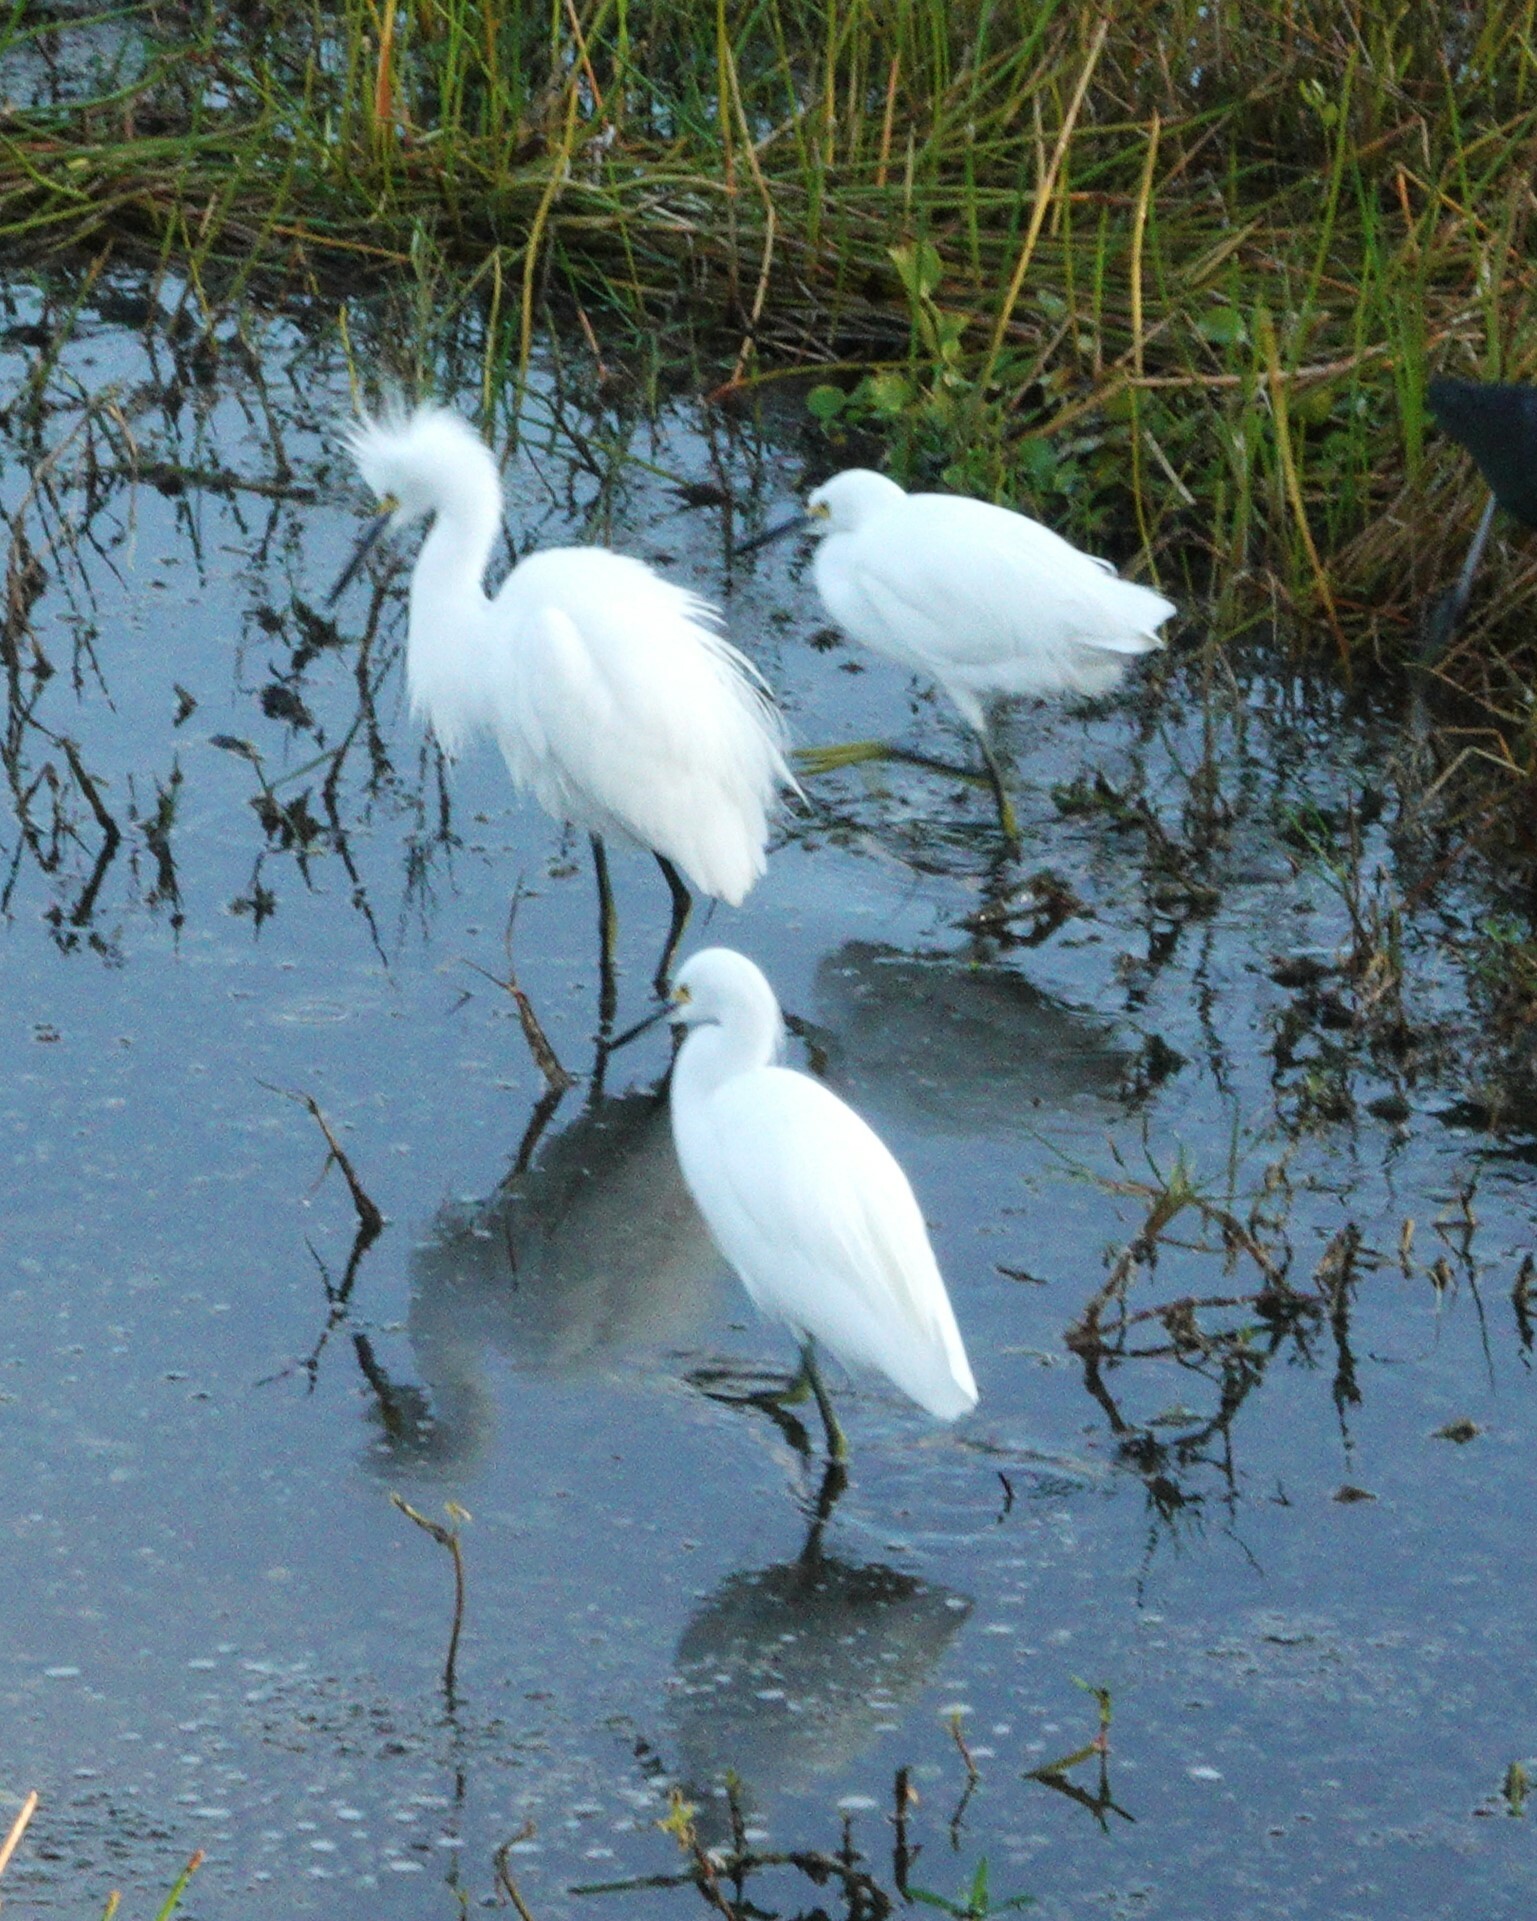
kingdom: Animalia
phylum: Chordata
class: Aves
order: Pelecaniformes
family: Ardeidae
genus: Egretta
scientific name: Egretta thula
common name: Snowy egret
